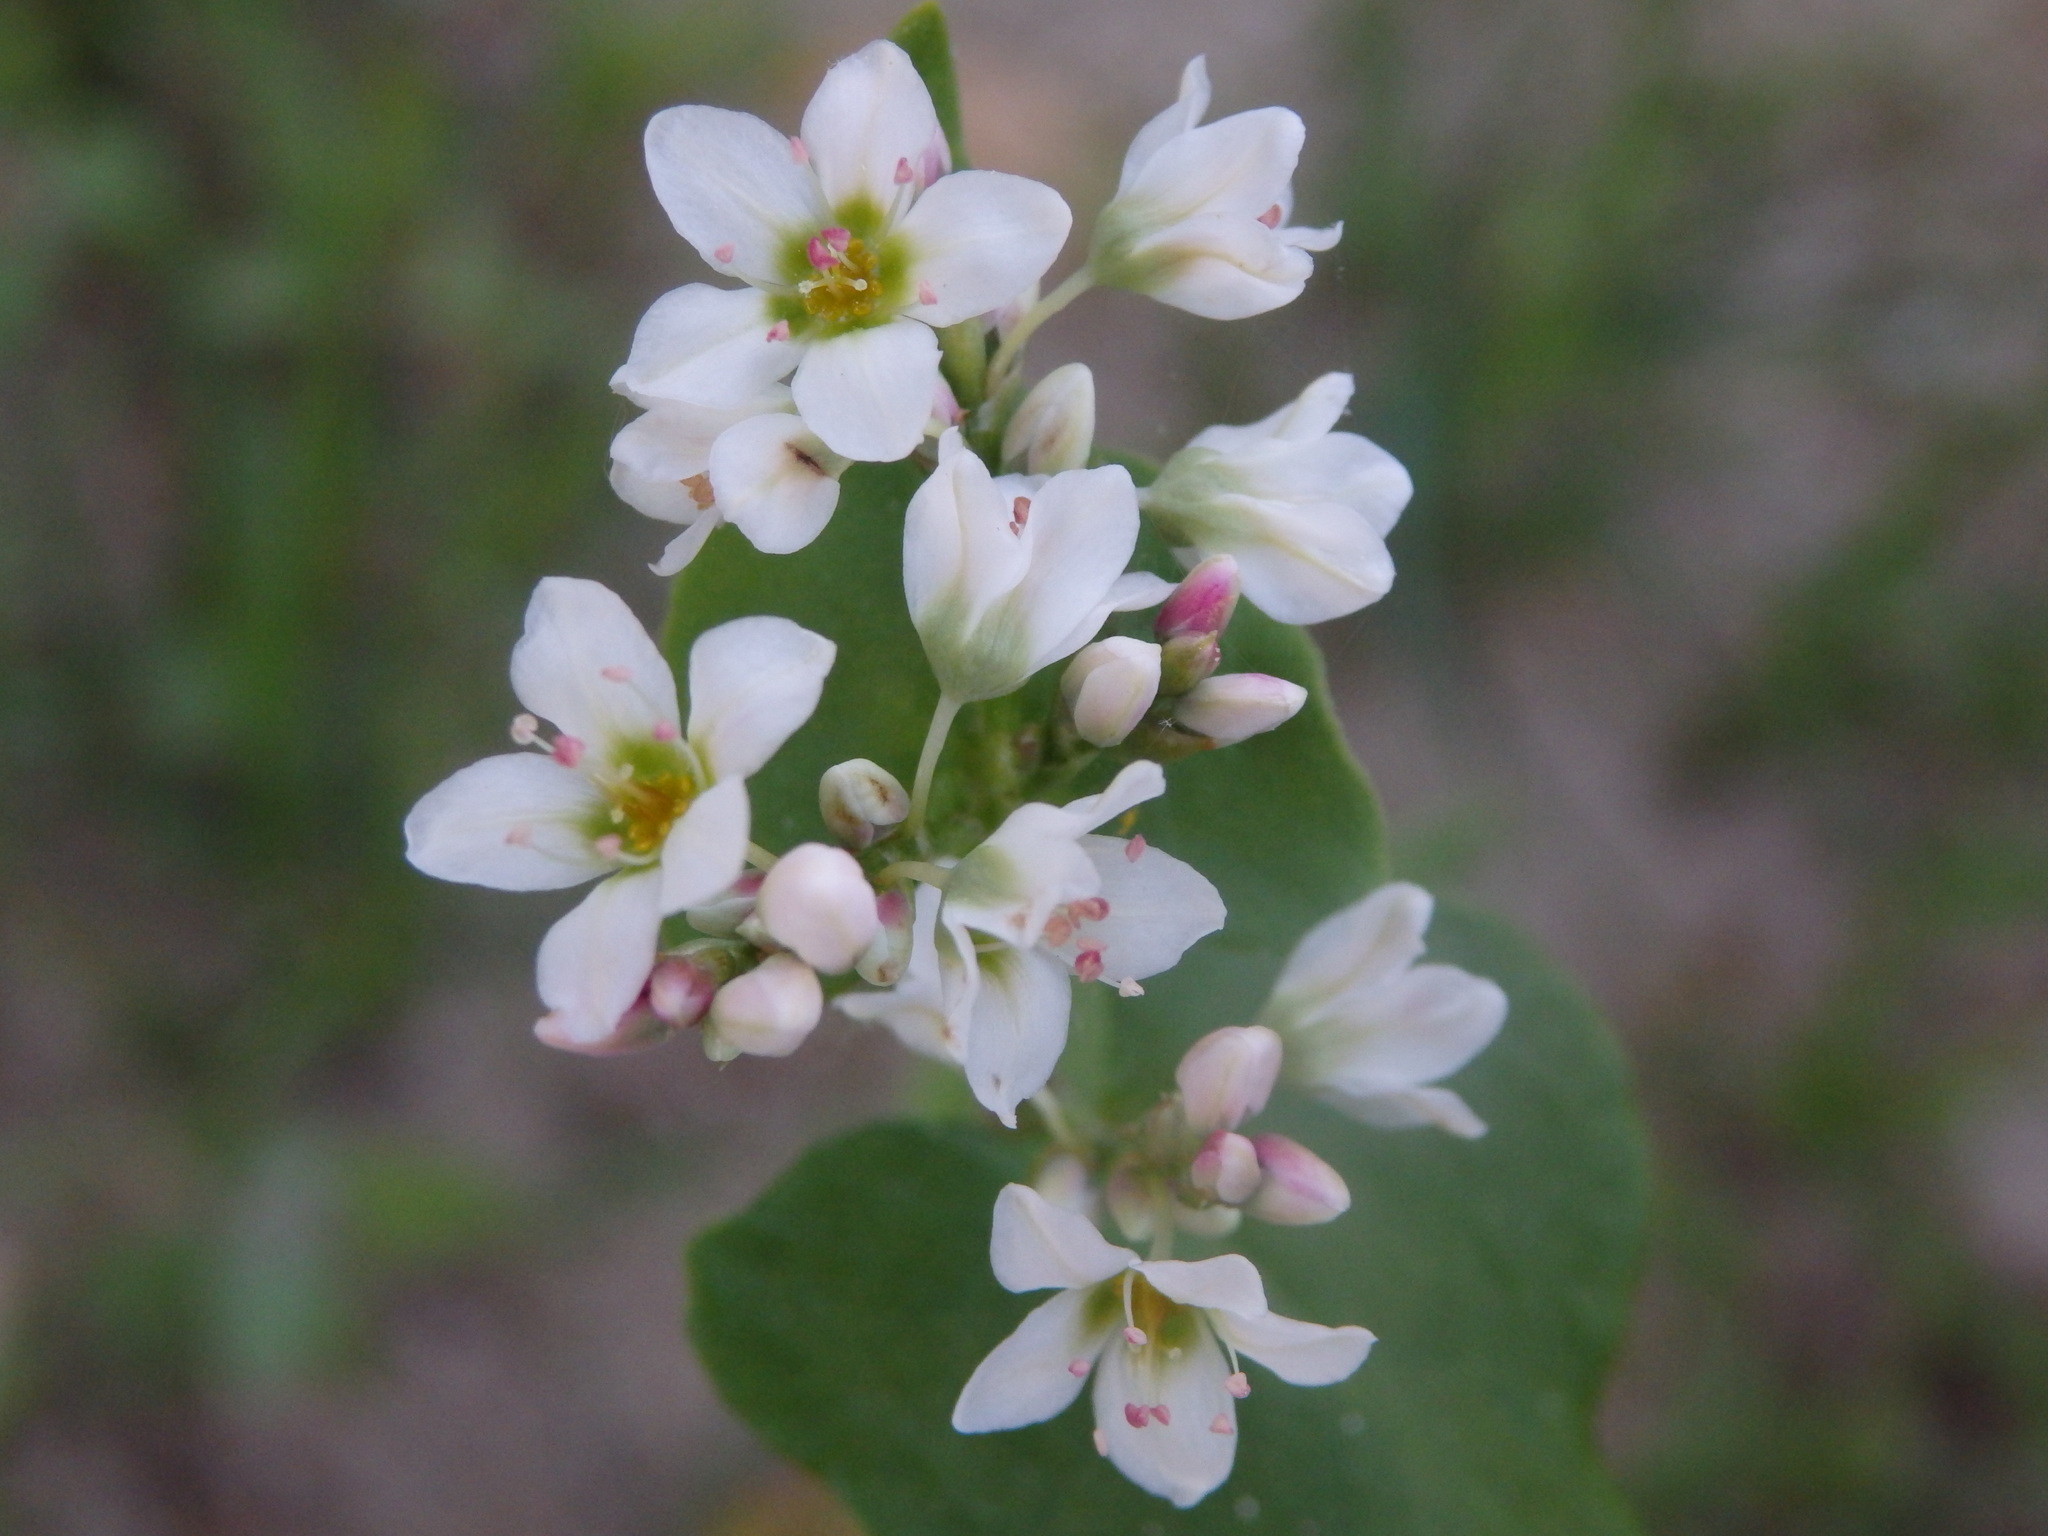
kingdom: Plantae
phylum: Tracheophyta
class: Magnoliopsida
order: Caryophyllales
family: Polygonaceae
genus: Fagopyrum
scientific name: Fagopyrum esculentum
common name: Buckwheat
